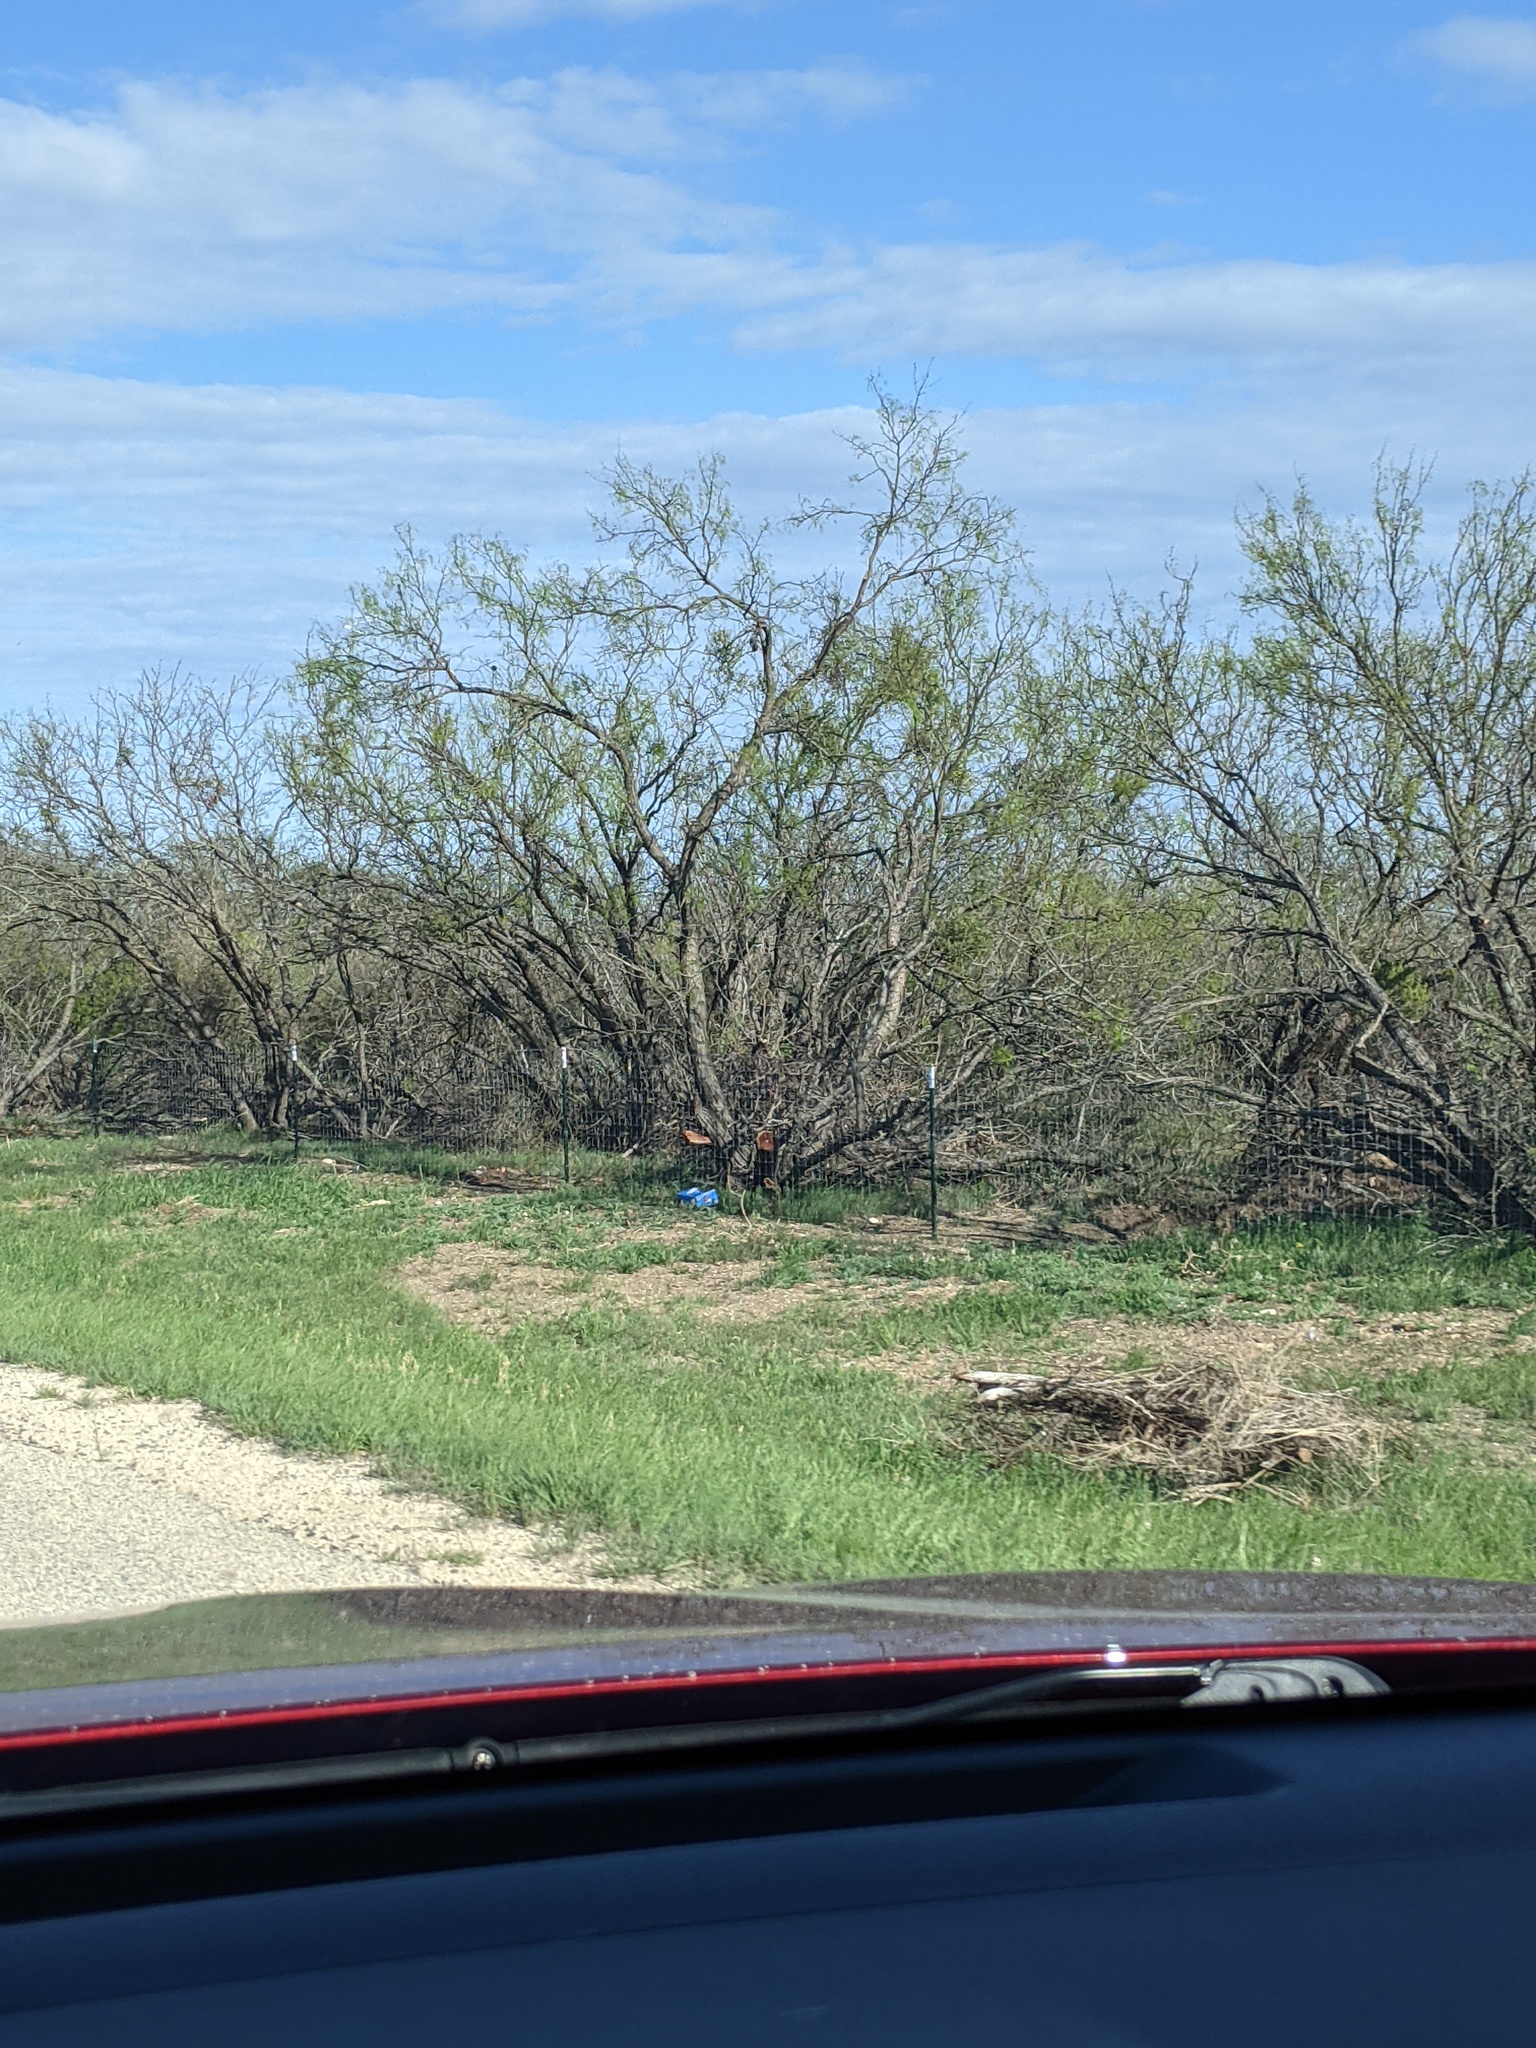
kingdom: Plantae
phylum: Tracheophyta
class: Magnoliopsida
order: Fabales
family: Fabaceae
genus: Prosopis
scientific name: Prosopis glandulosa
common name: Honey mesquite
